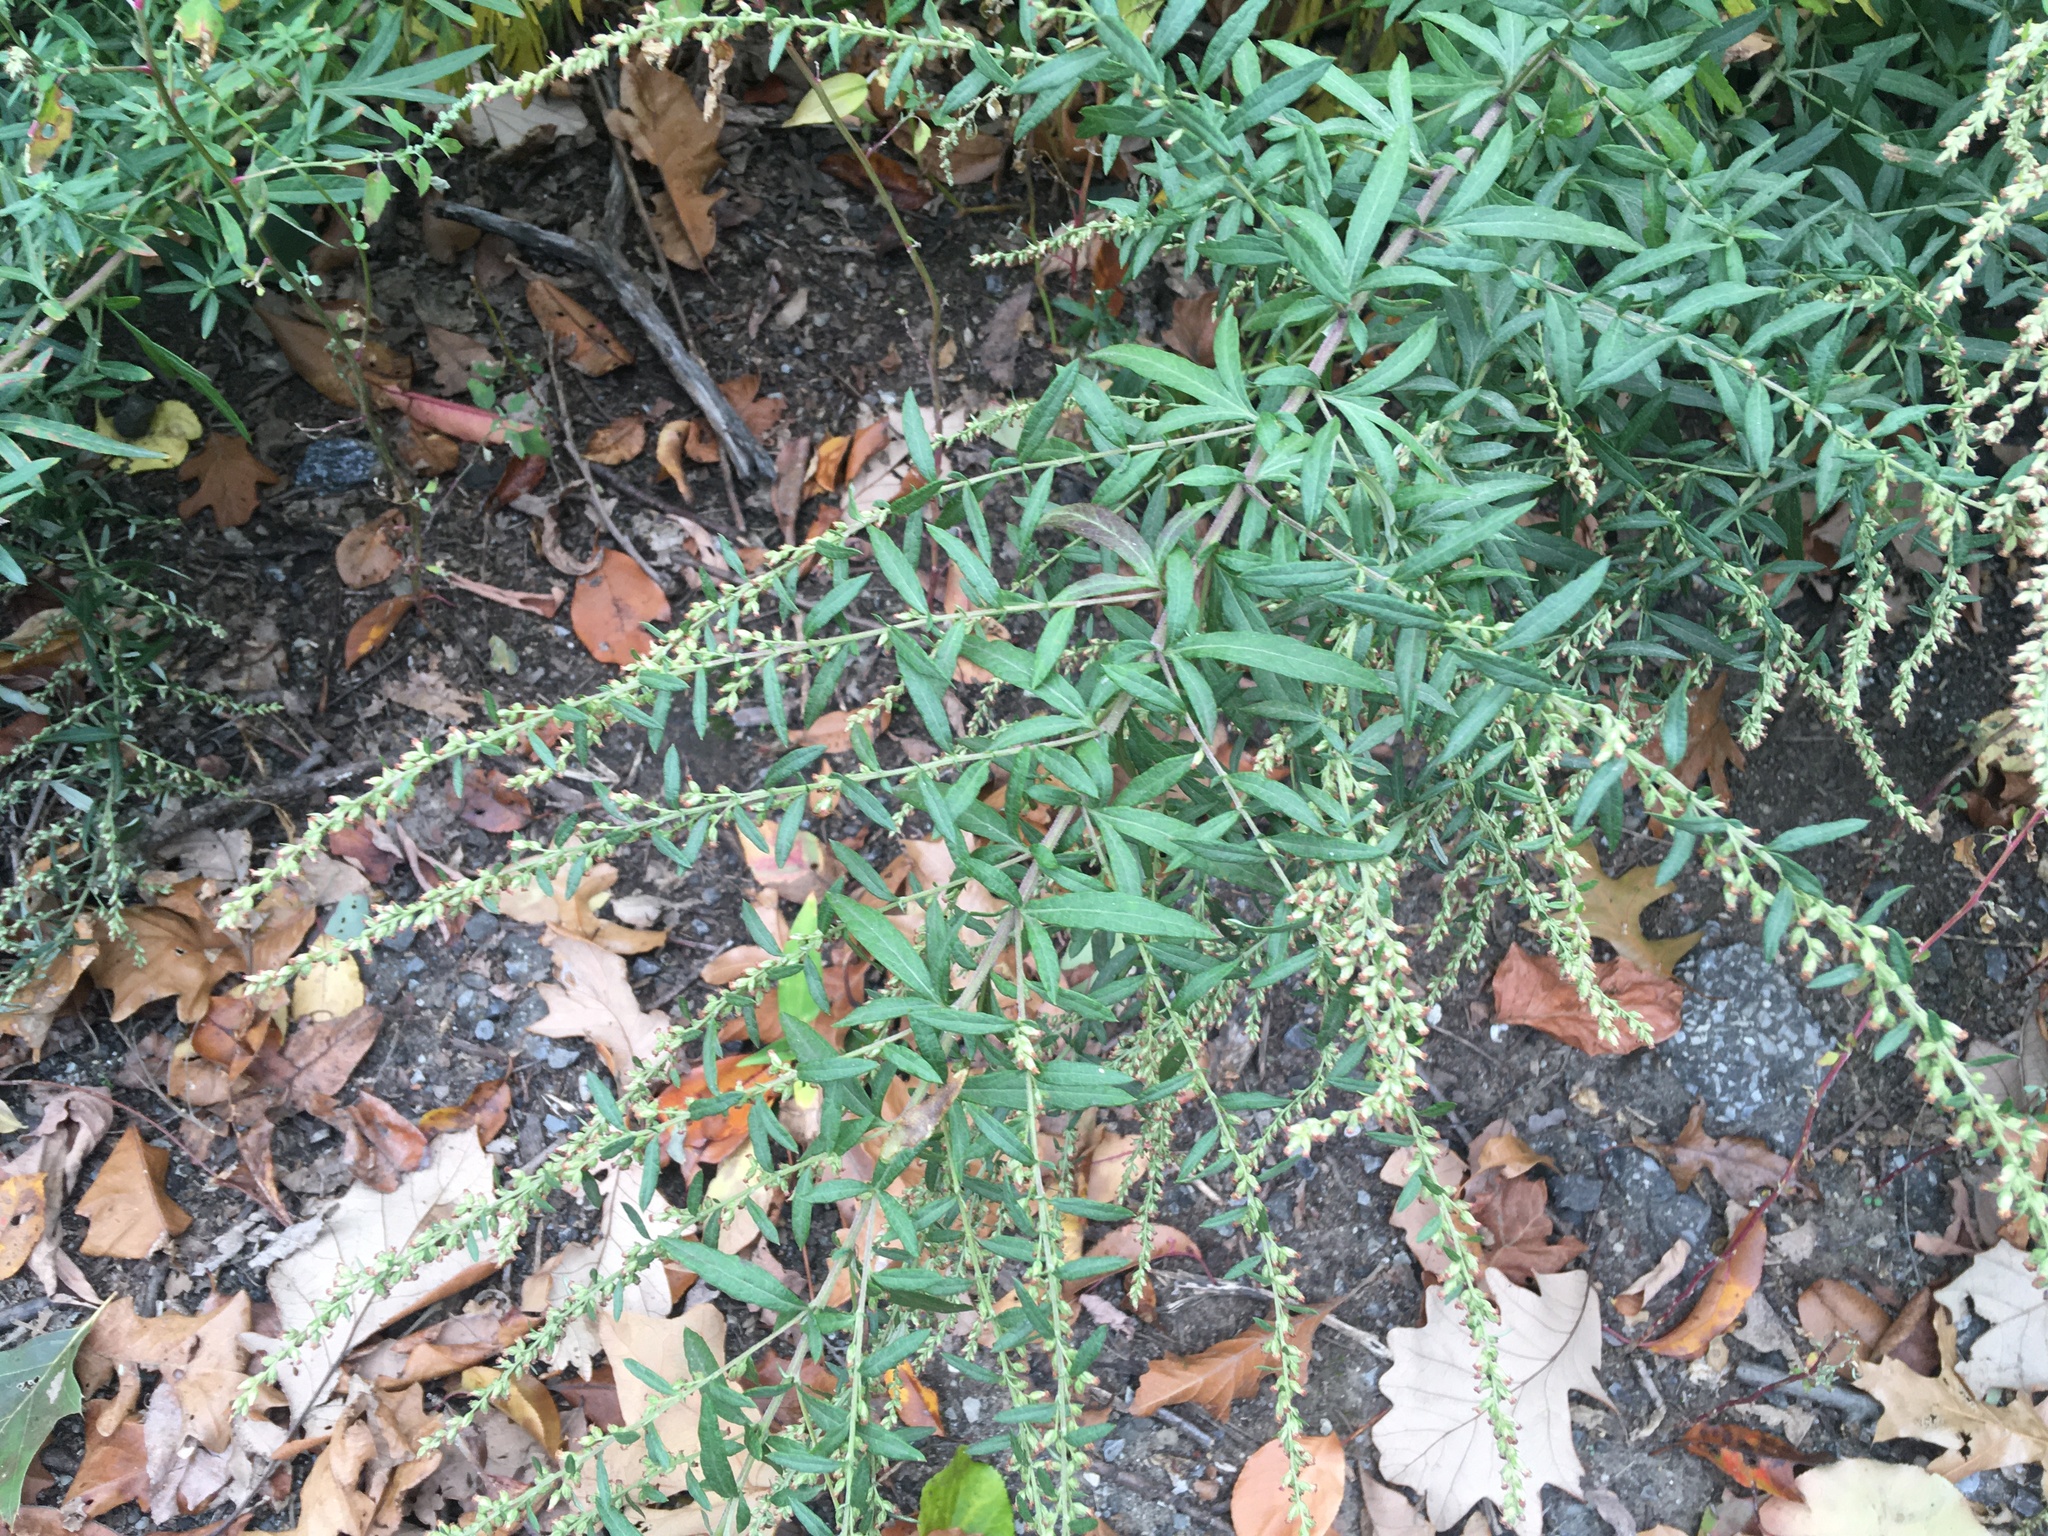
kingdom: Plantae
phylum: Tracheophyta
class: Magnoliopsida
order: Asterales
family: Asteraceae
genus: Artemisia
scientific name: Artemisia vulgaris
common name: Mugwort
